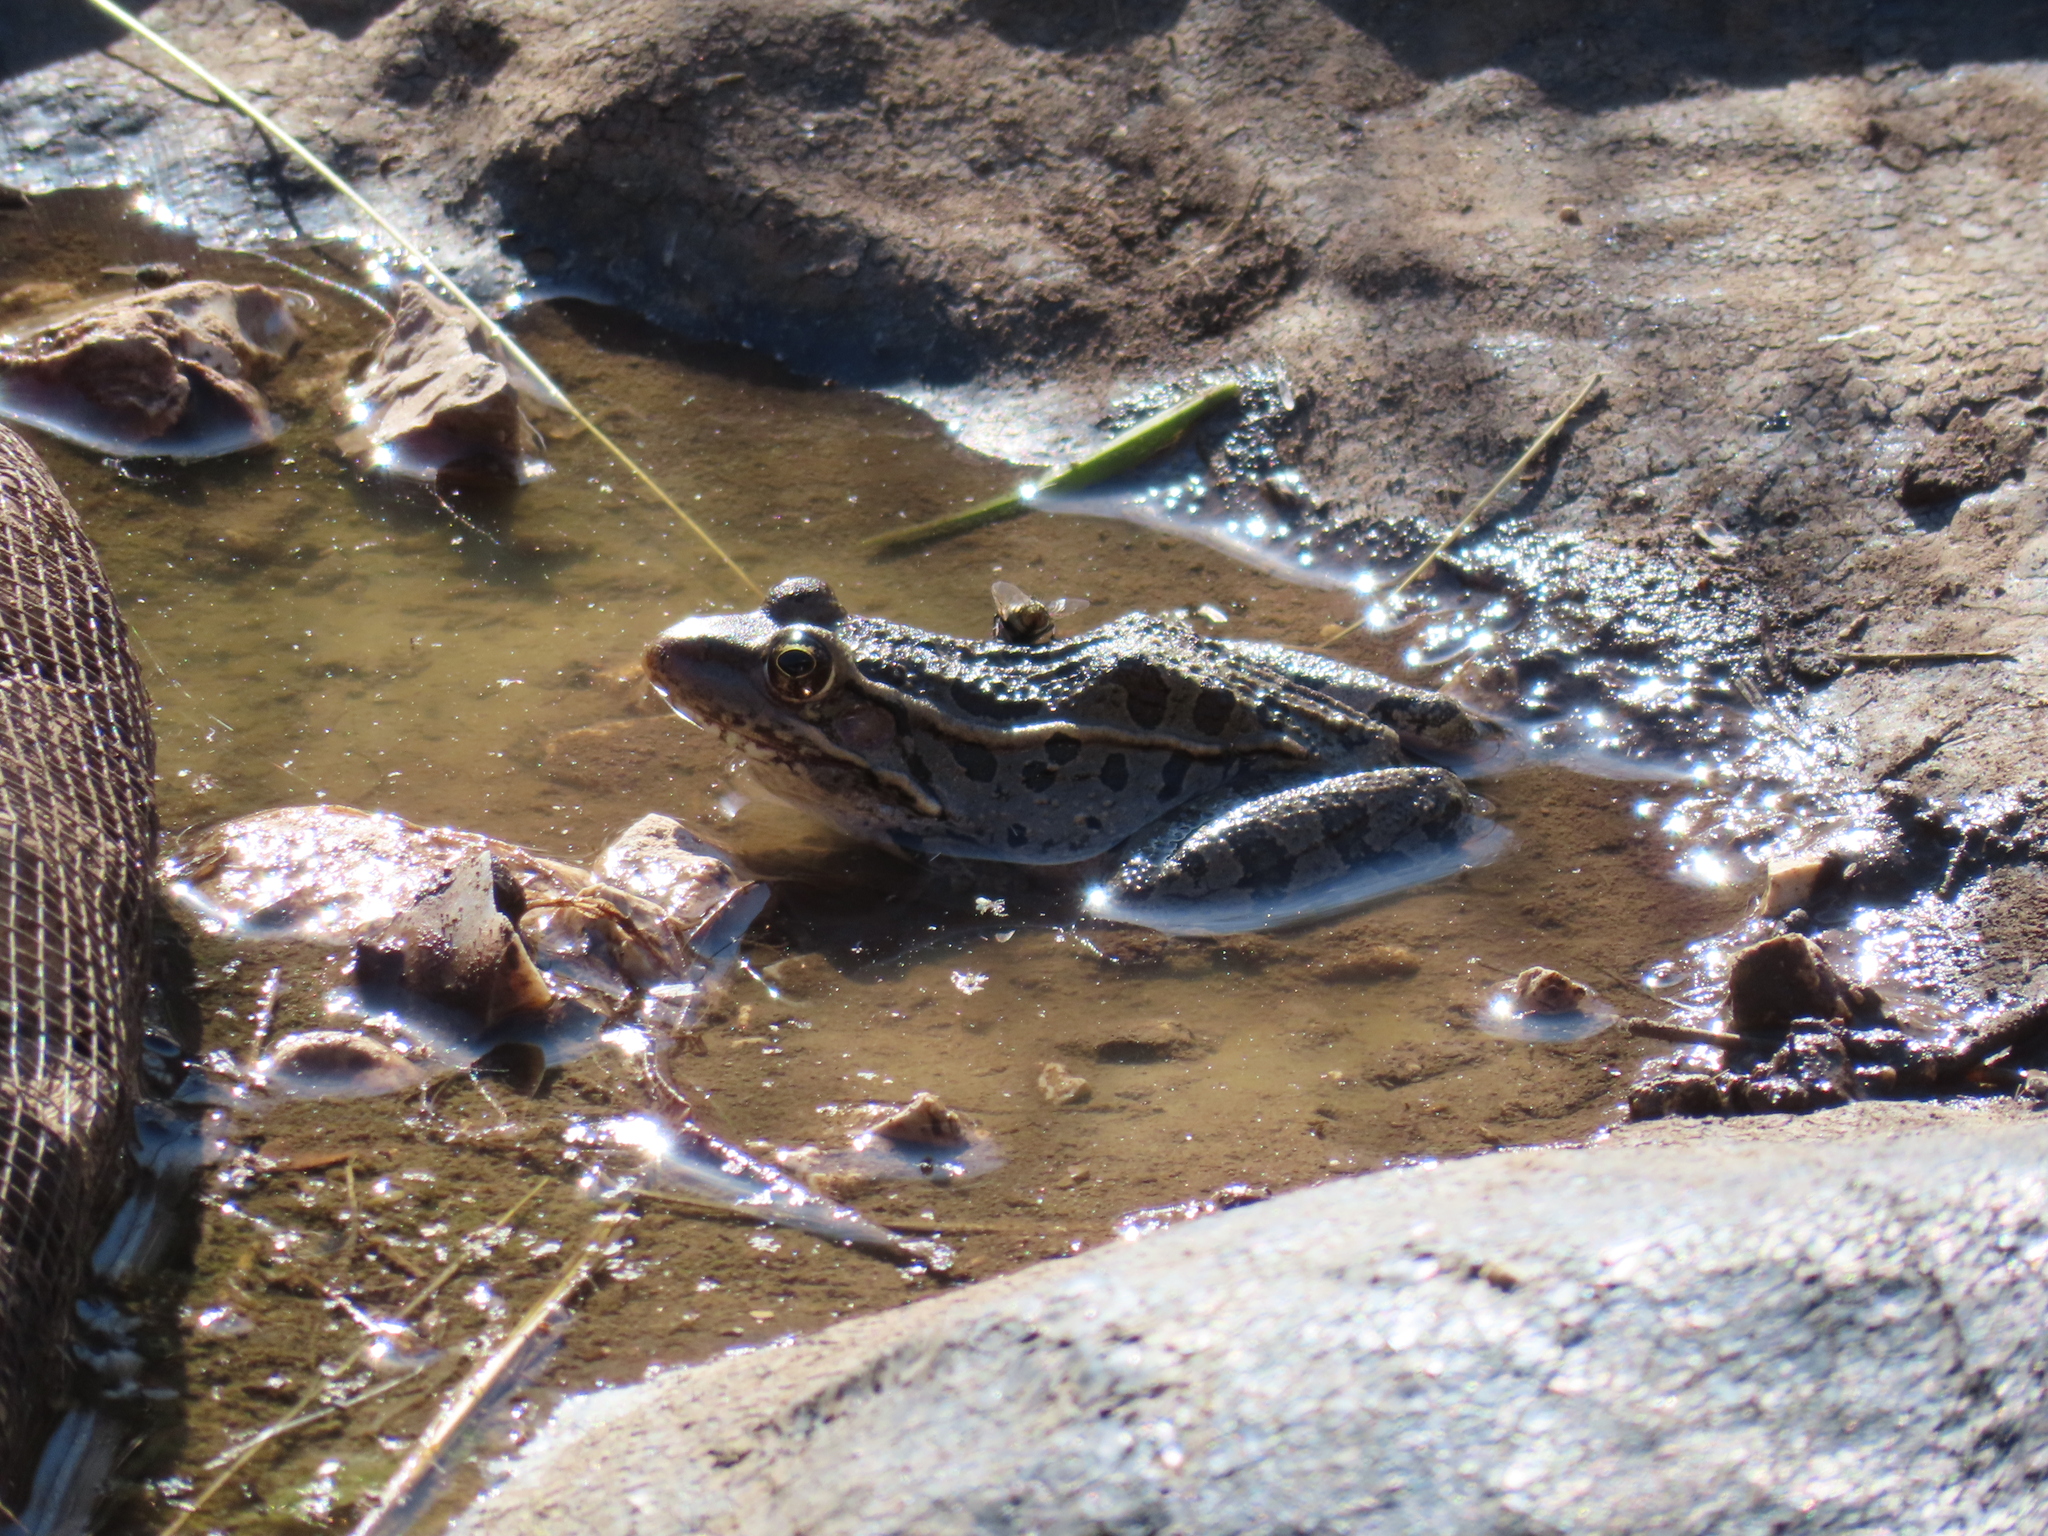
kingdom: Animalia
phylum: Chordata
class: Amphibia
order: Anura
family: Ranidae
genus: Lithobates
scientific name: Lithobates berlandieri
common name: Rio grande leopard frog
